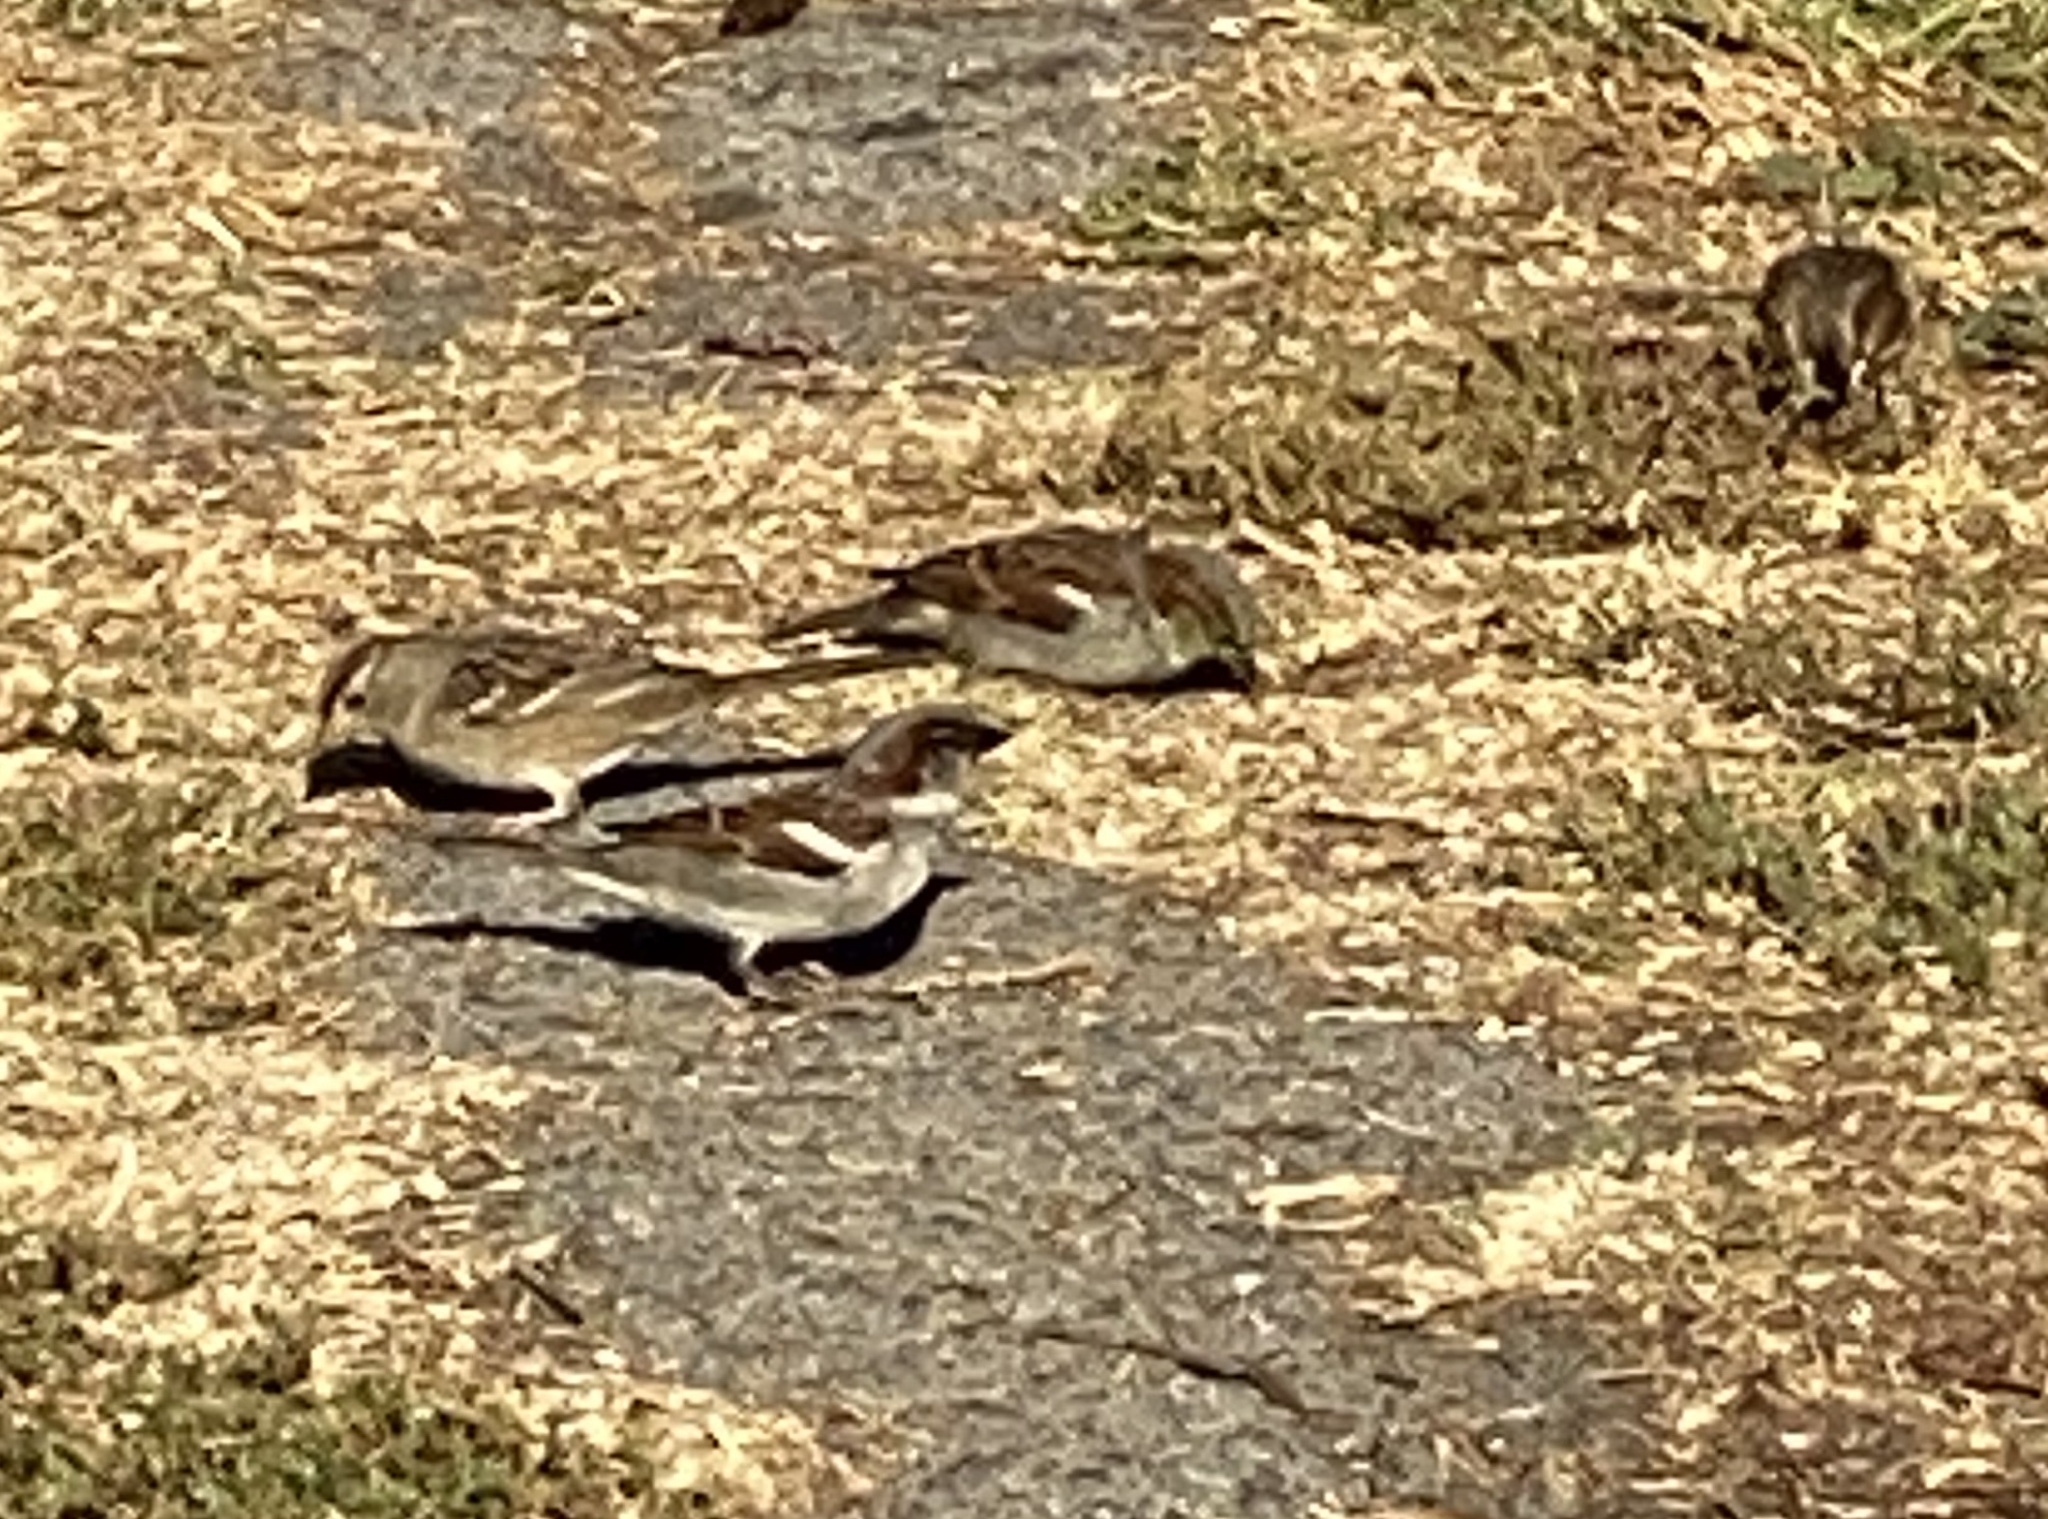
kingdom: Animalia
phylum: Chordata
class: Aves
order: Passeriformes
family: Passeridae
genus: Passer
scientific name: Passer domesticus
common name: House sparrow
